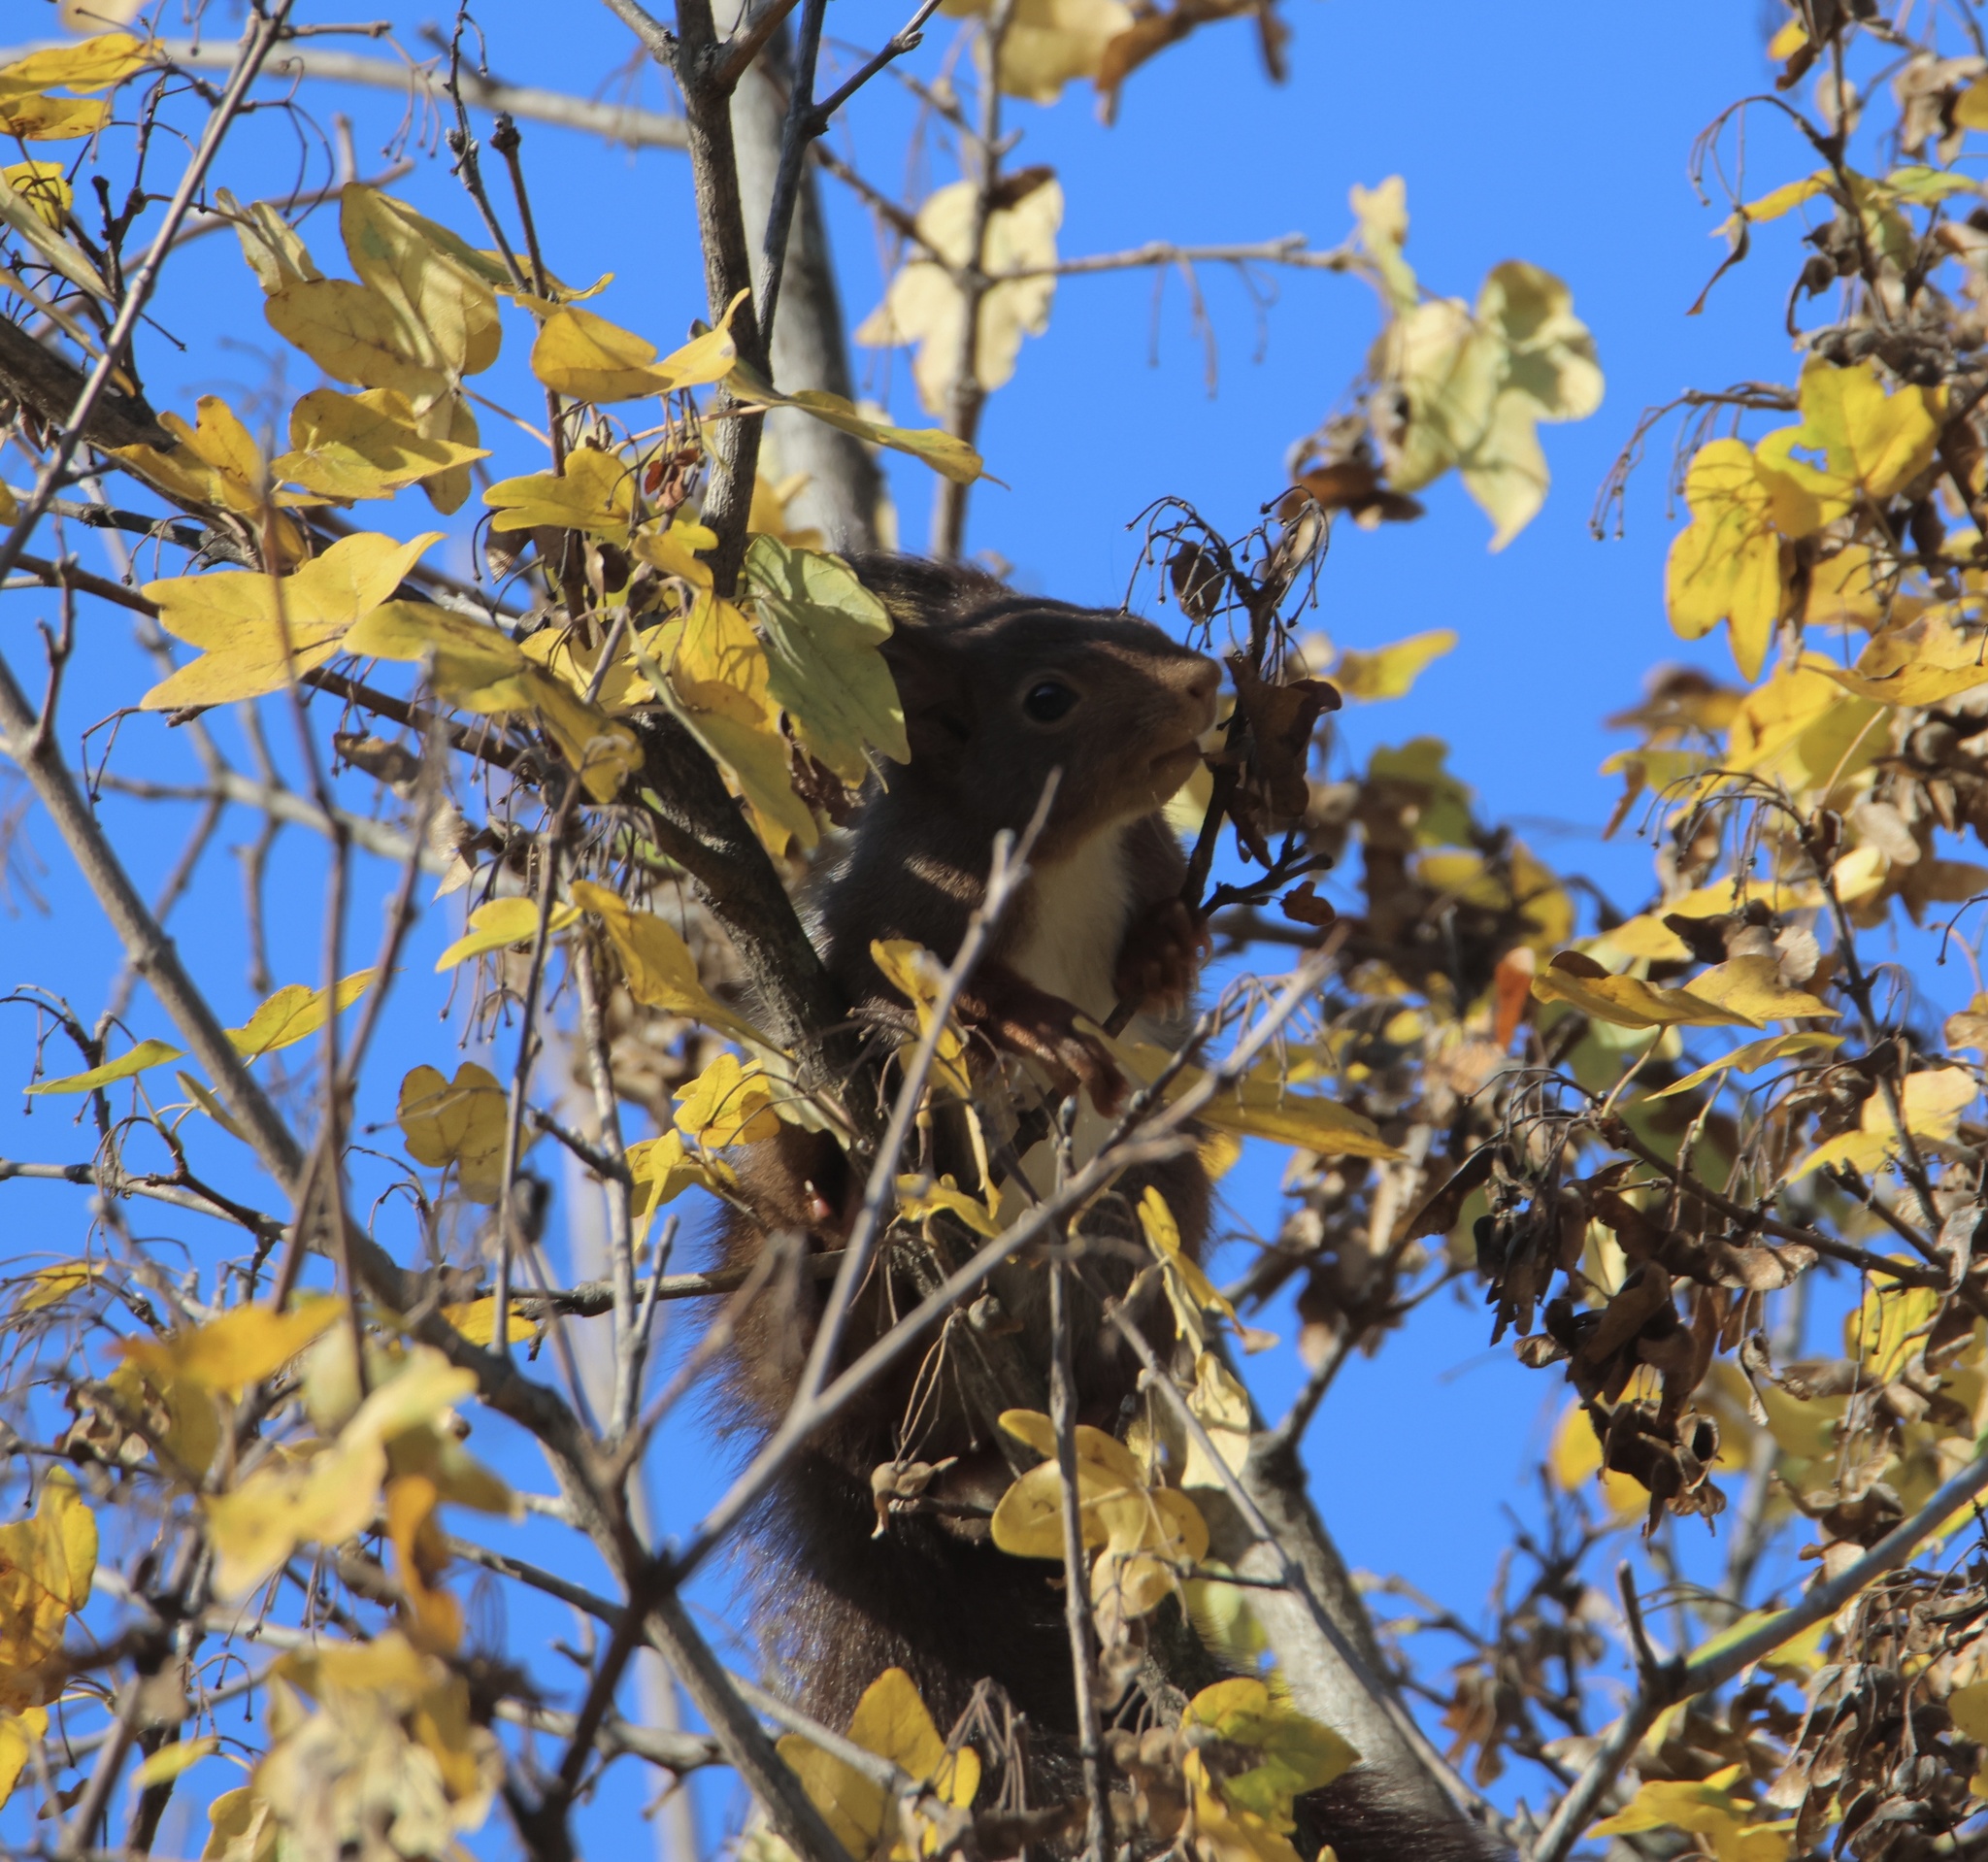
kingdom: Animalia
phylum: Chordata
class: Mammalia
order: Rodentia
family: Sciuridae
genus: Sciurus
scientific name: Sciurus vulgaris
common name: Eurasian red squirrel
